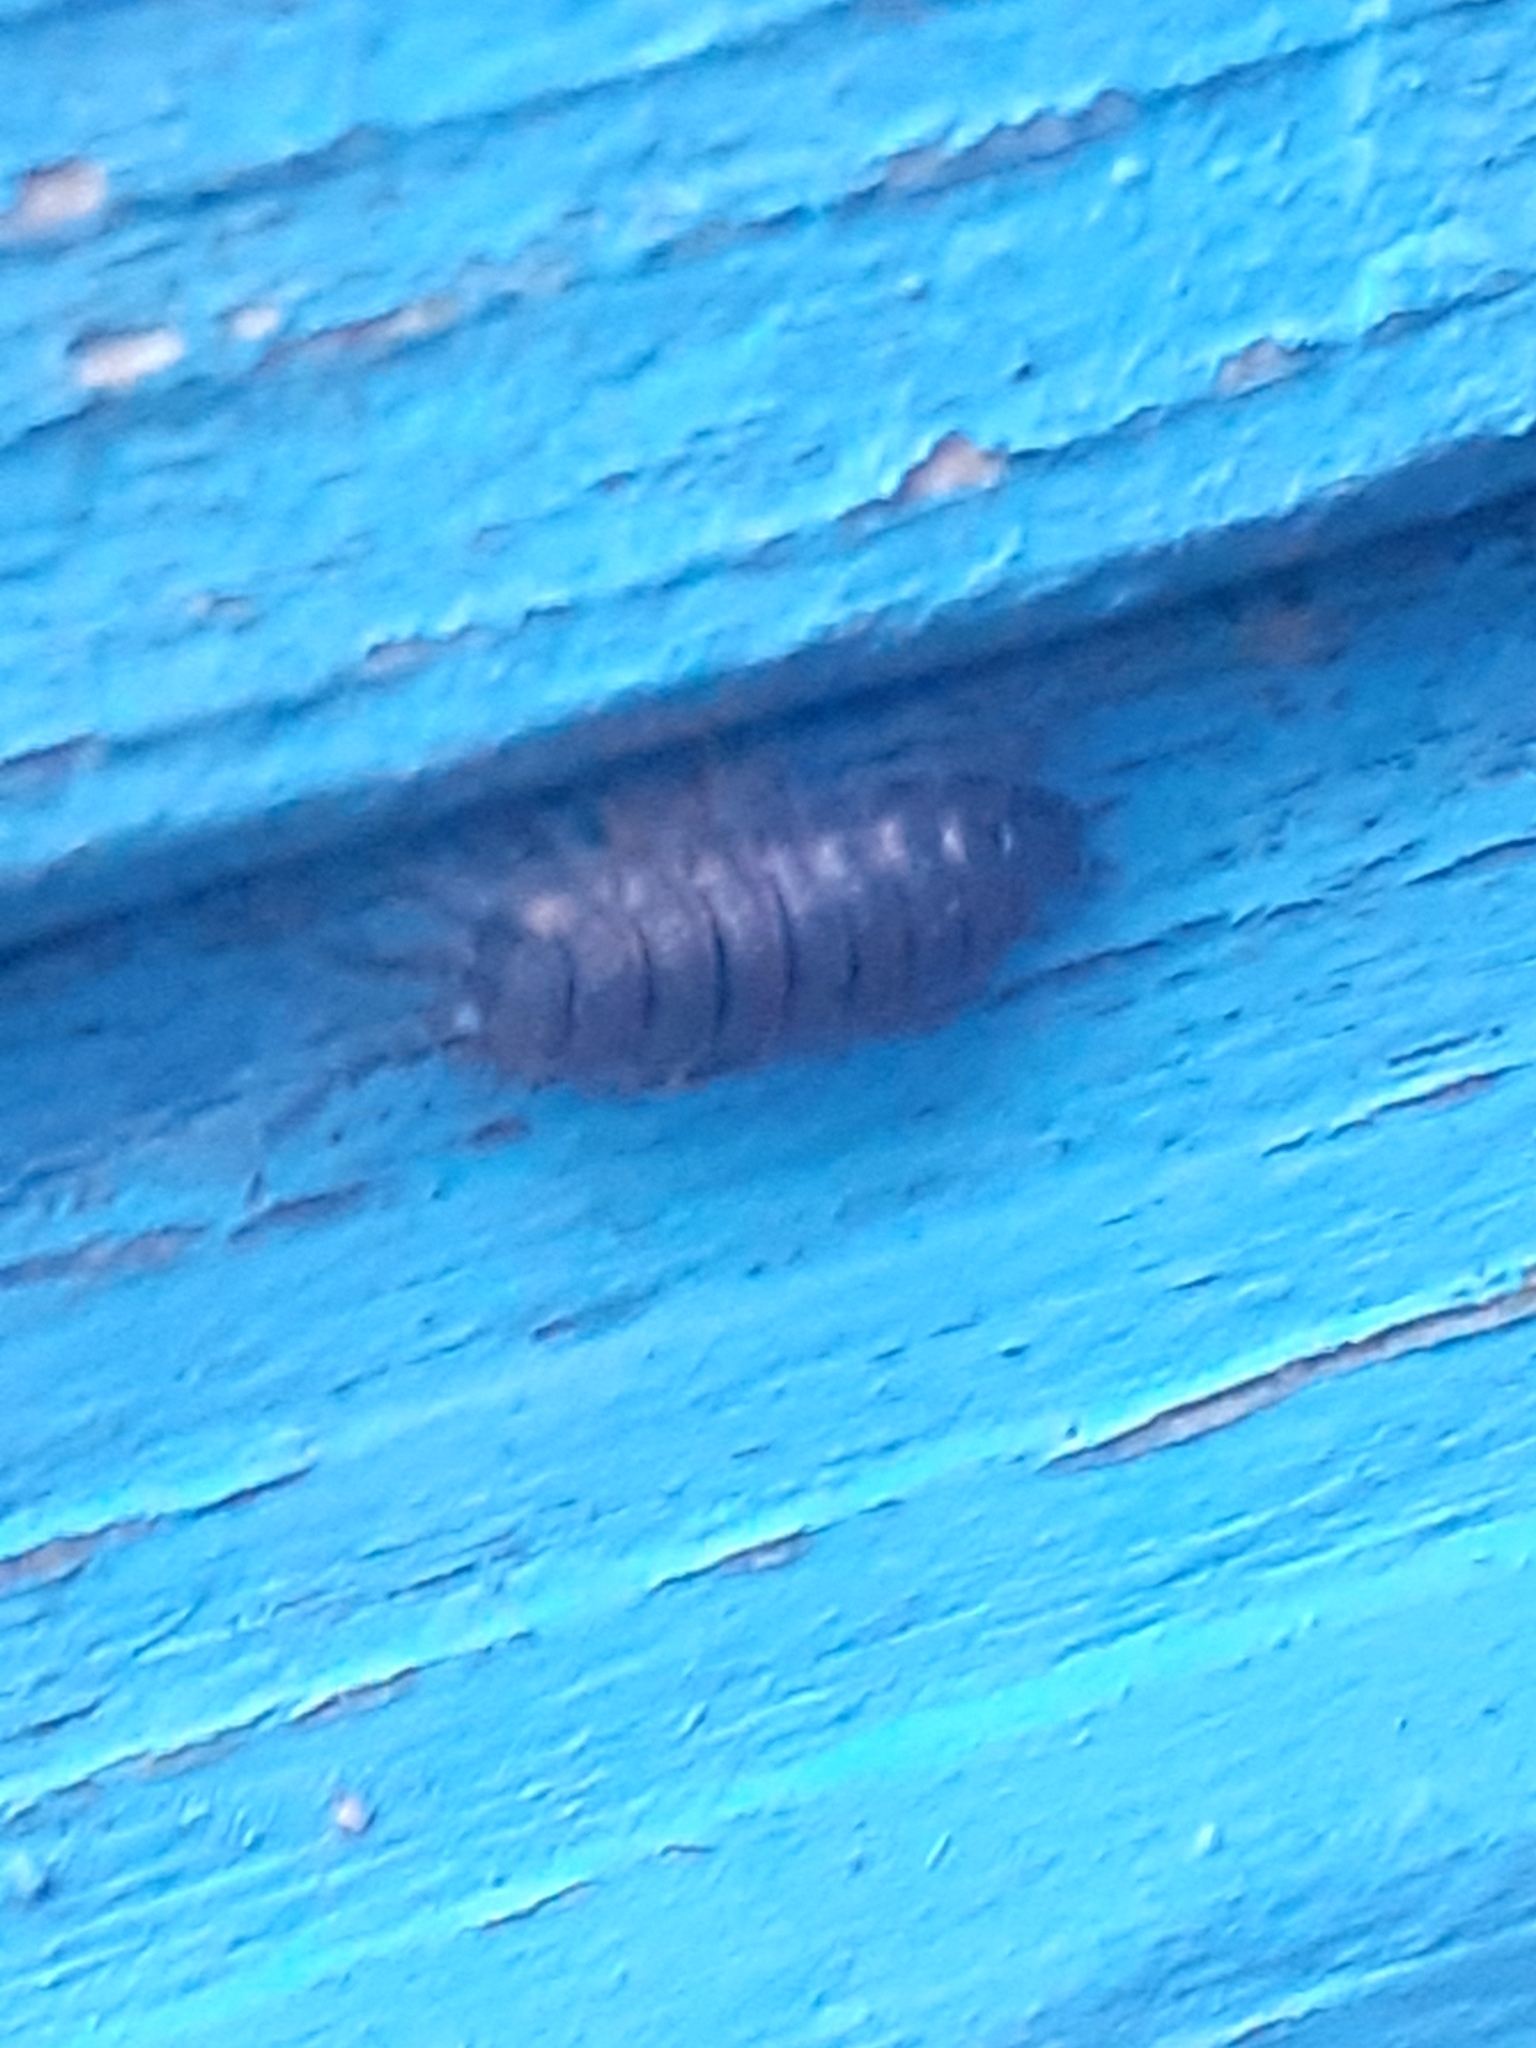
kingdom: Animalia
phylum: Arthropoda
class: Malacostraca
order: Isopoda
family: Porcellionidae
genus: Porcellio
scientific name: Porcellio scaber
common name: Common rough woodlouse
